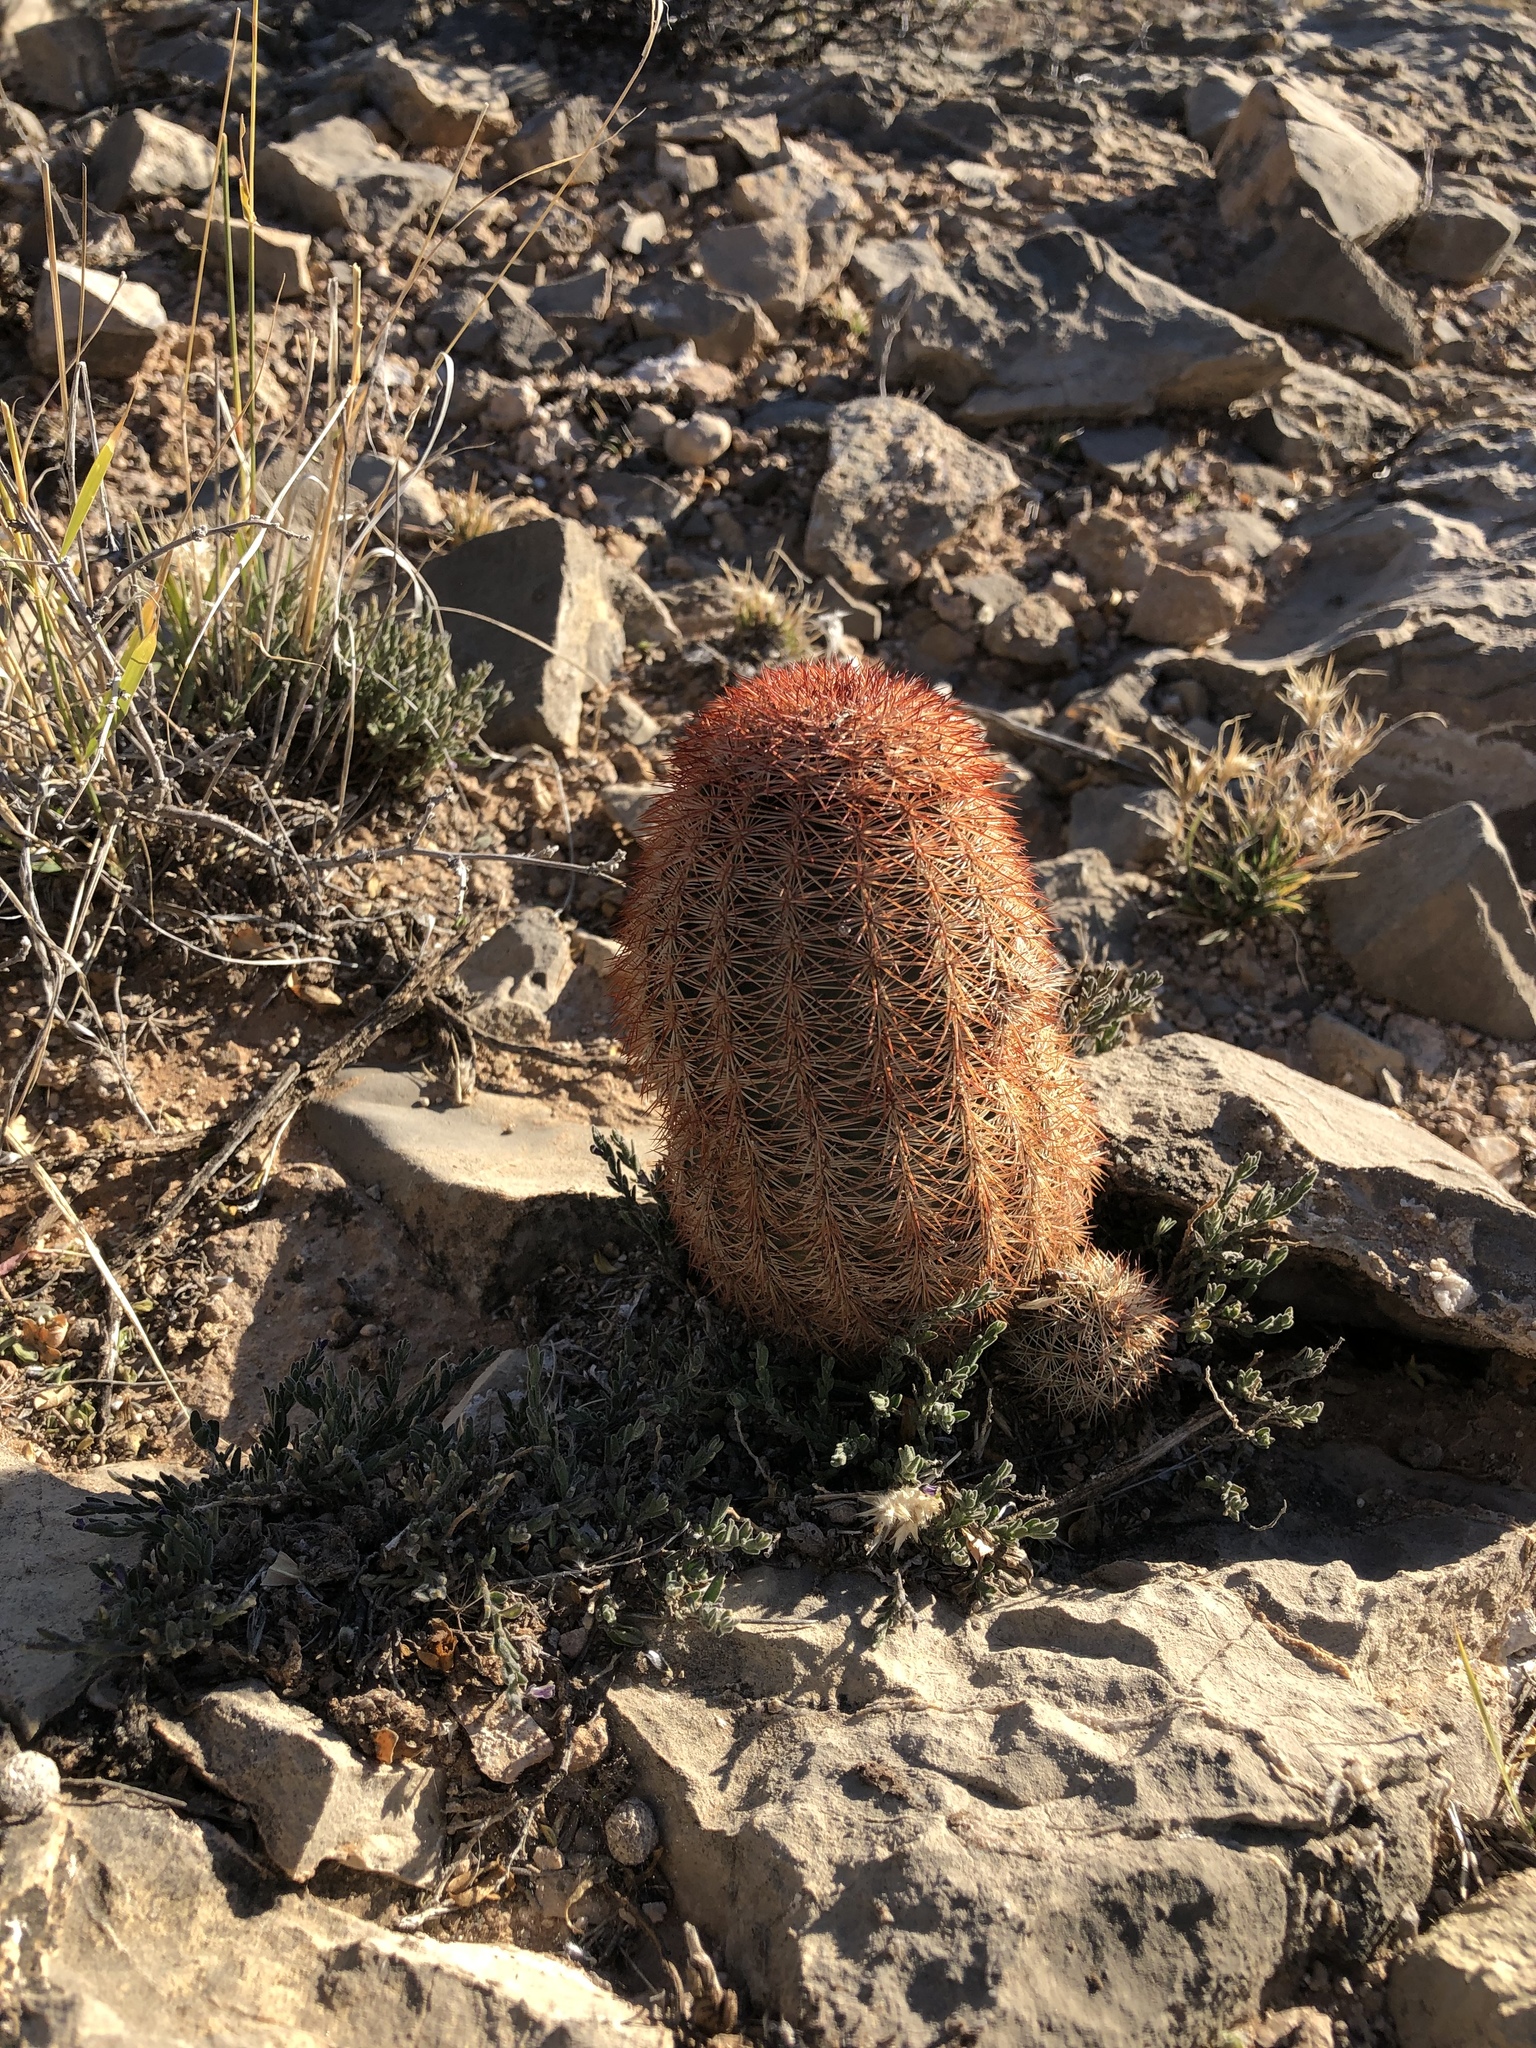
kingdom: Plantae
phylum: Tracheophyta
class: Magnoliopsida
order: Caryophyllales
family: Cactaceae
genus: Echinocereus
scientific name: Echinocereus dasyacanthus
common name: Spiny hedgehog cactus
